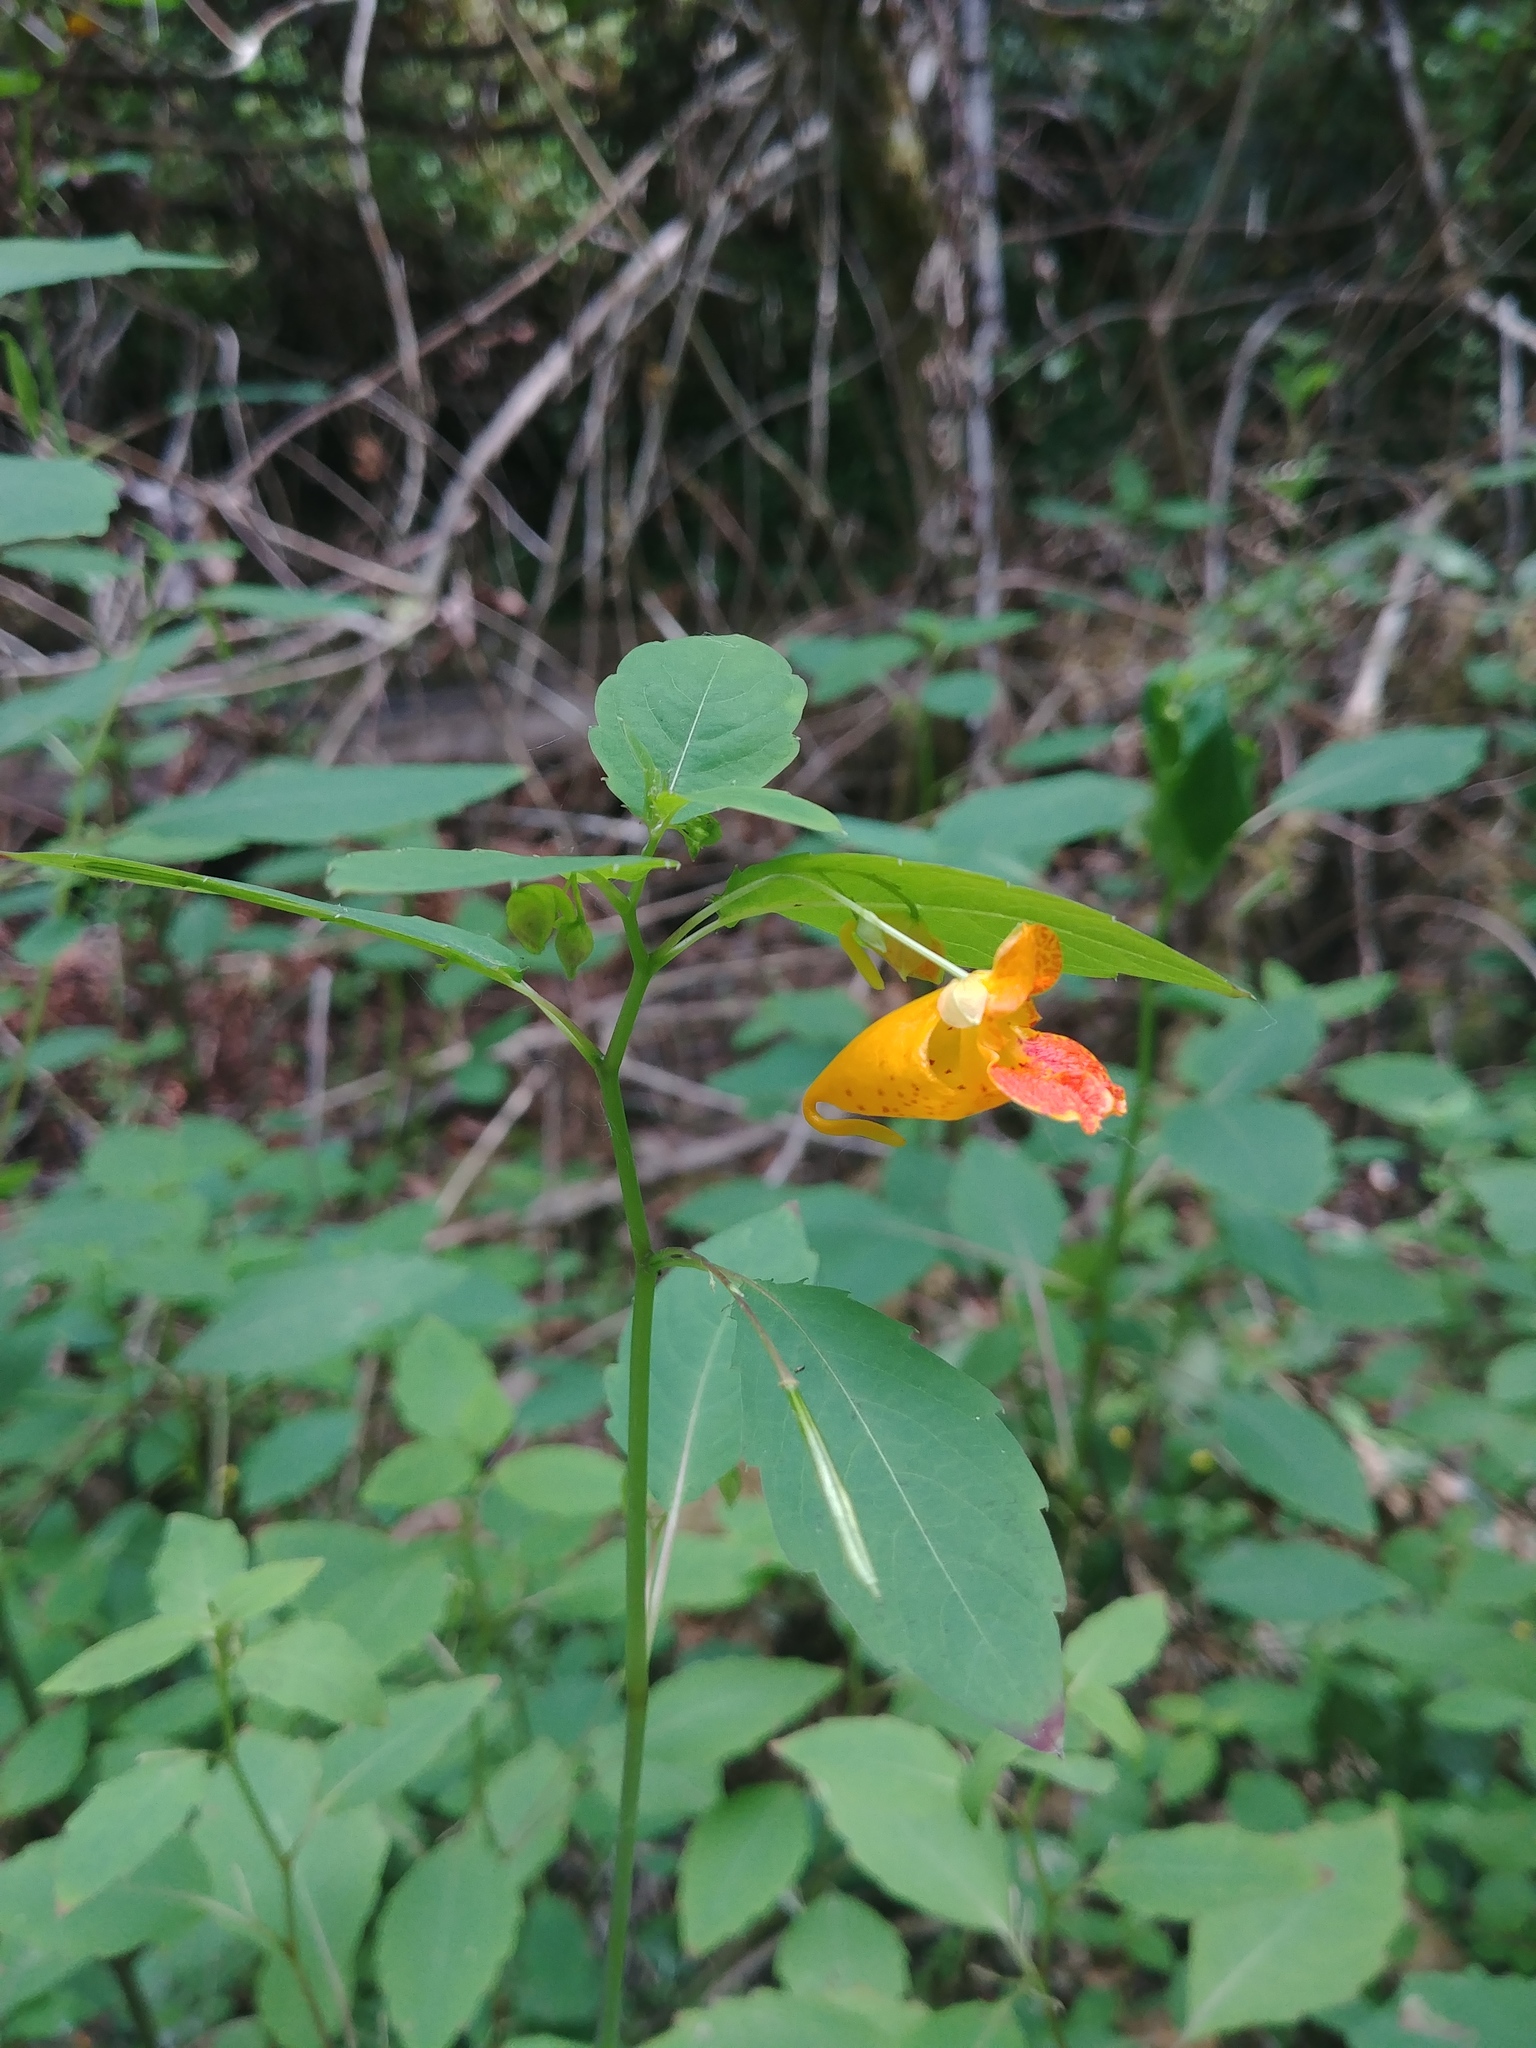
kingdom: Plantae
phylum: Tracheophyta
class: Magnoliopsida
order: Ericales
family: Balsaminaceae
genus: Impatiens
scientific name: Impatiens capensis
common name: Orange balsam
